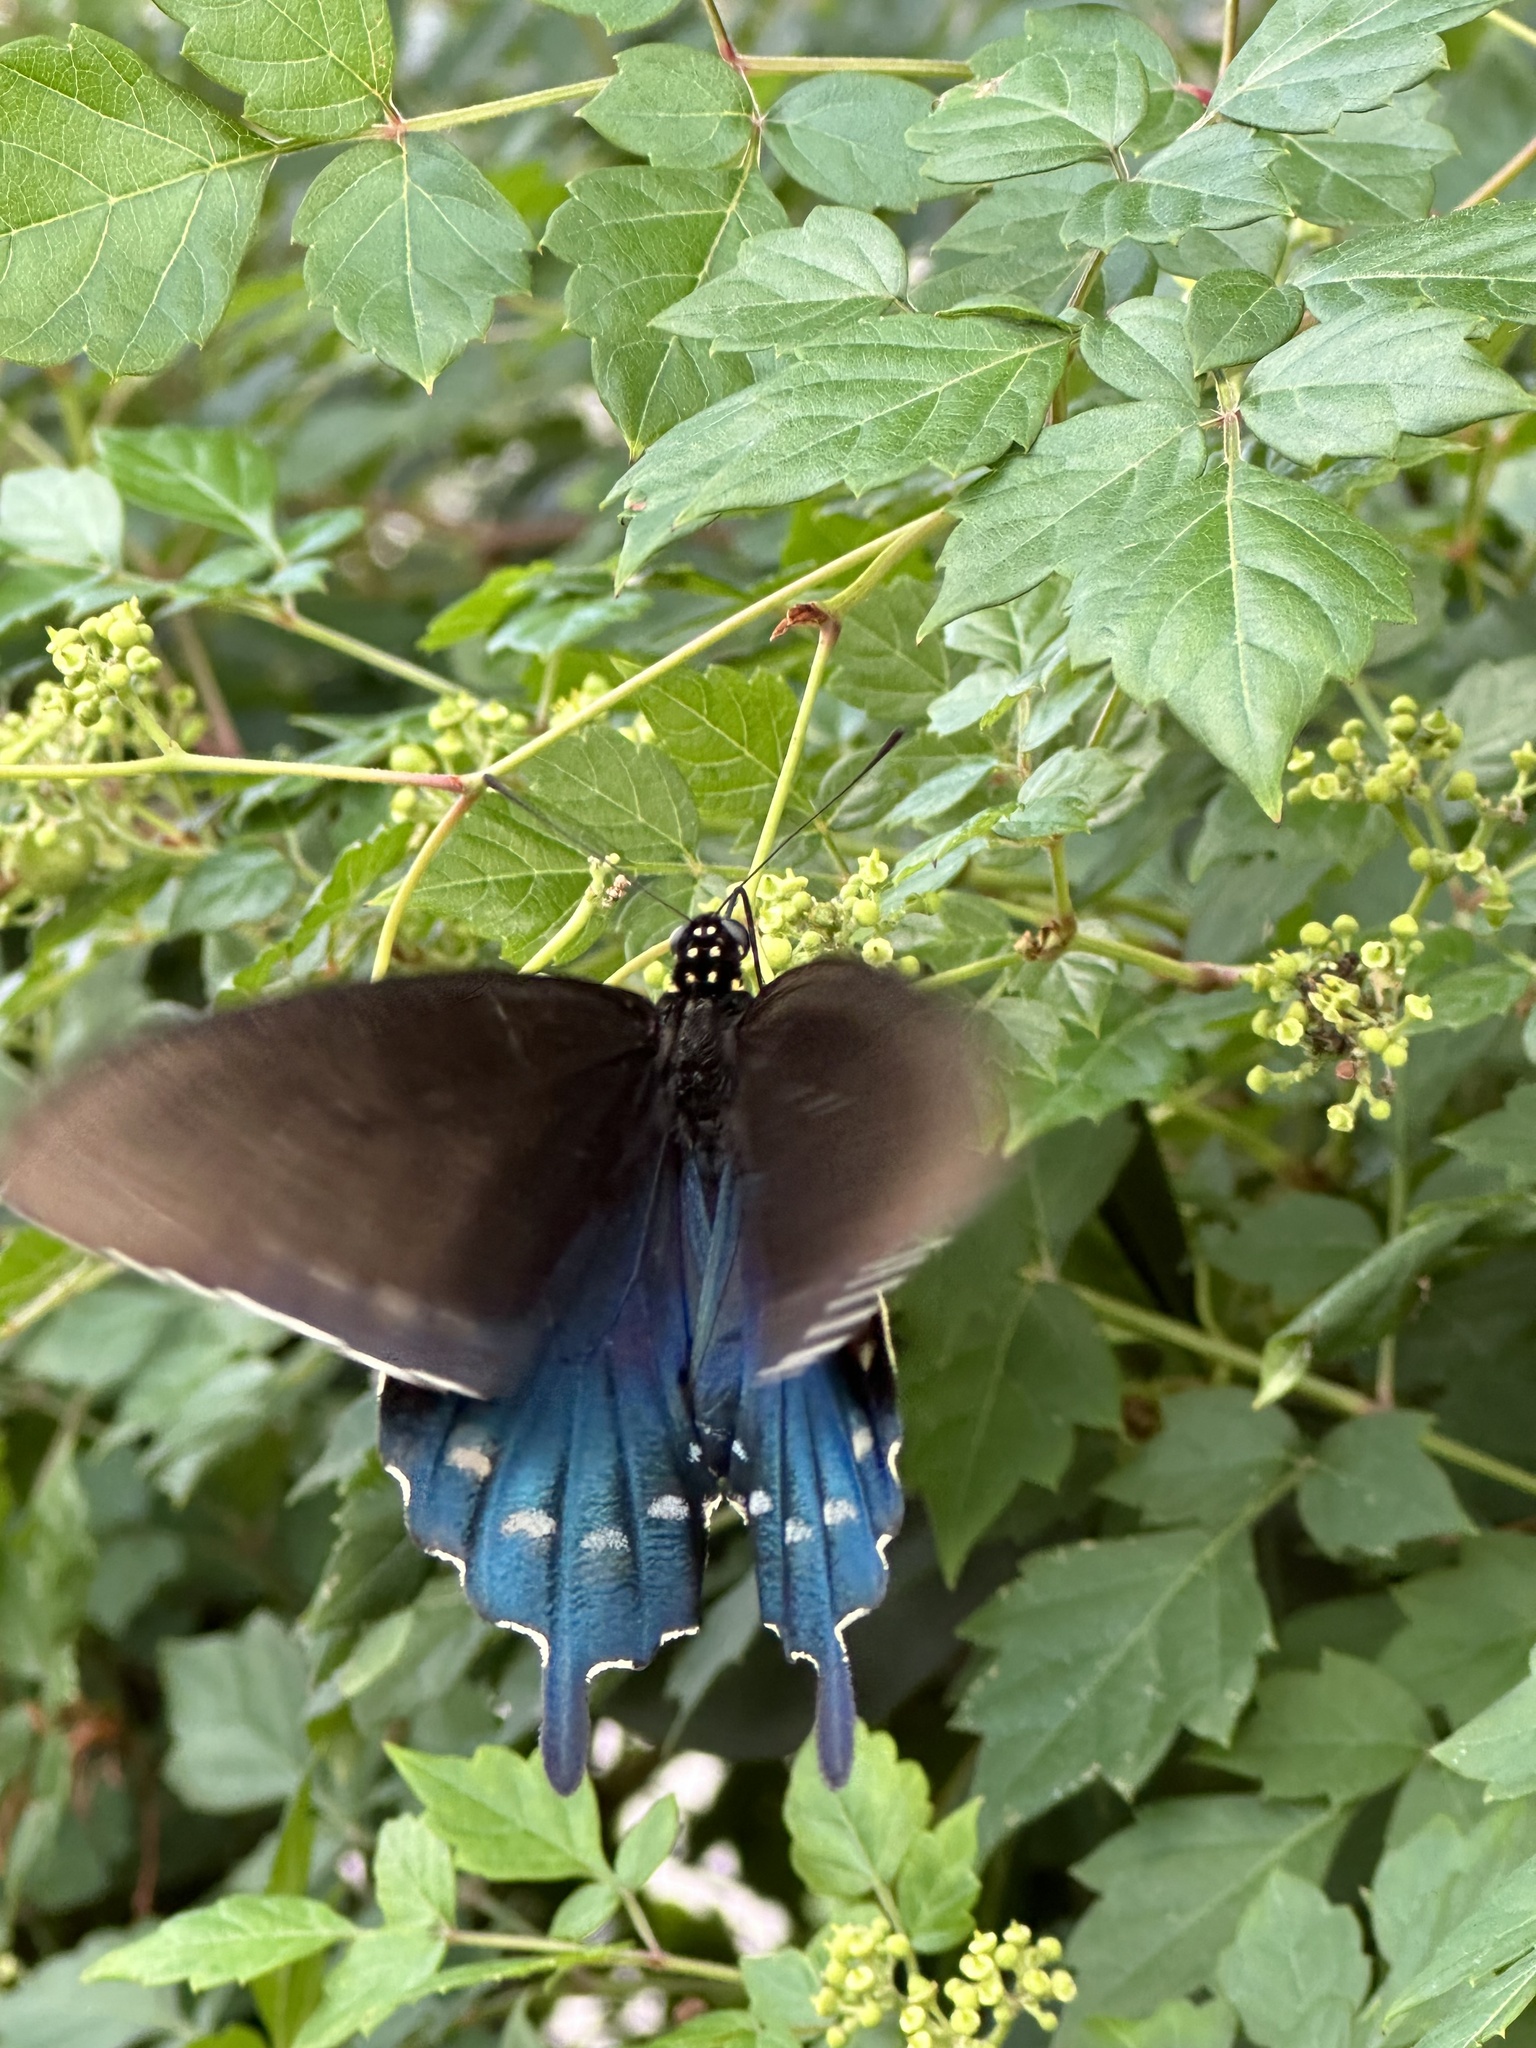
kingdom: Animalia
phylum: Arthropoda
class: Insecta
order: Lepidoptera
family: Papilionidae
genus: Battus
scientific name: Battus philenor
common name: Pipevine swallowtail
